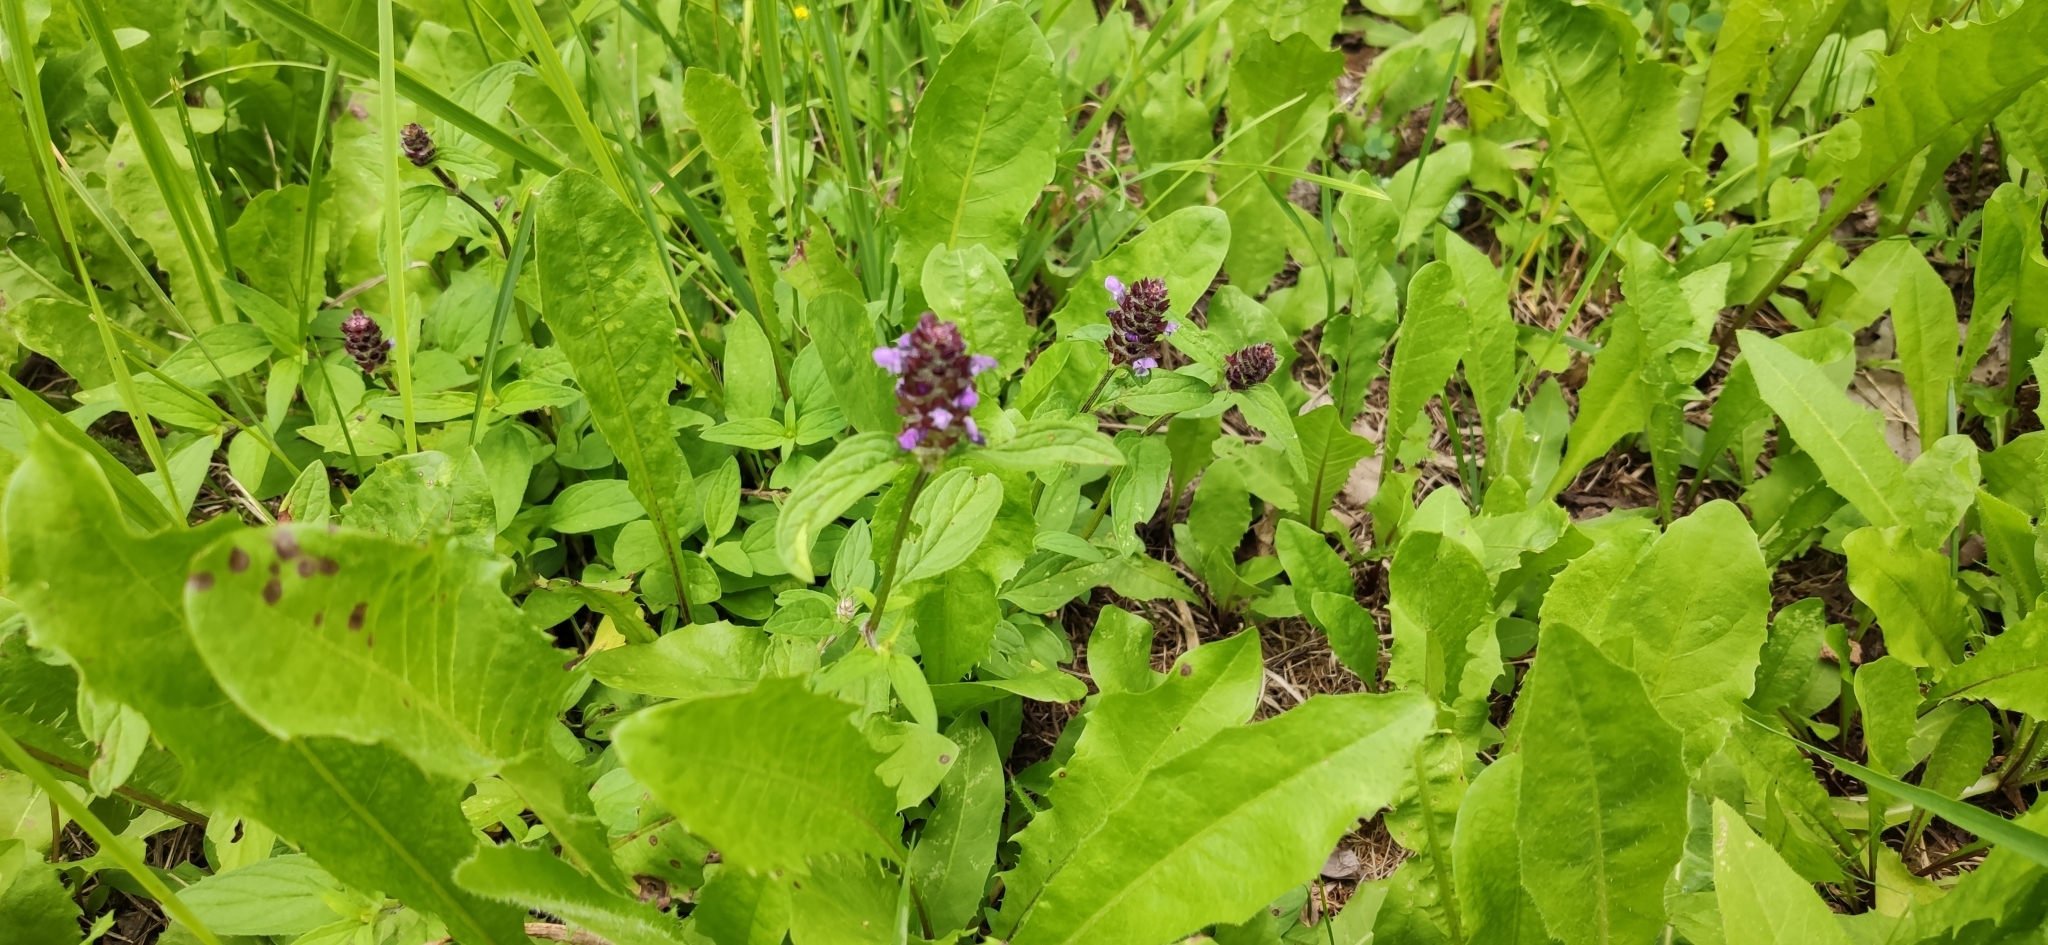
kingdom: Plantae
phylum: Tracheophyta
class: Magnoliopsida
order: Lamiales
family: Lamiaceae
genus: Prunella
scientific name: Prunella vulgaris
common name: Heal-all
